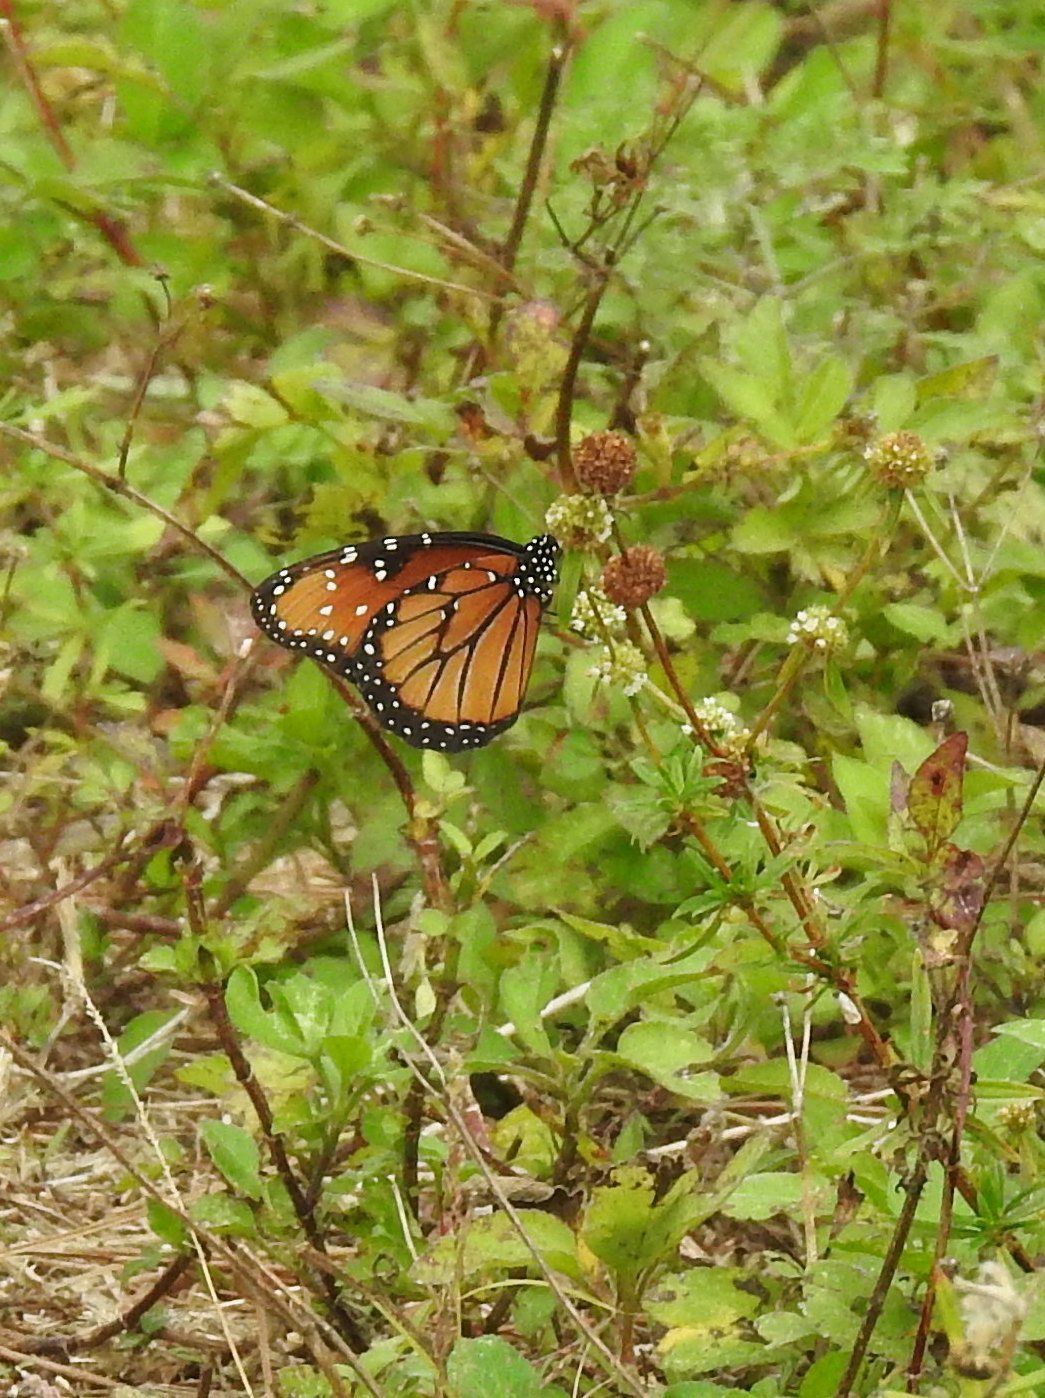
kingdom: Animalia
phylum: Arthropoda
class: Insecta
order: Lepidoptera
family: Nymphalidae
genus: Danaus
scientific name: Danaus gilippus
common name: Queen
